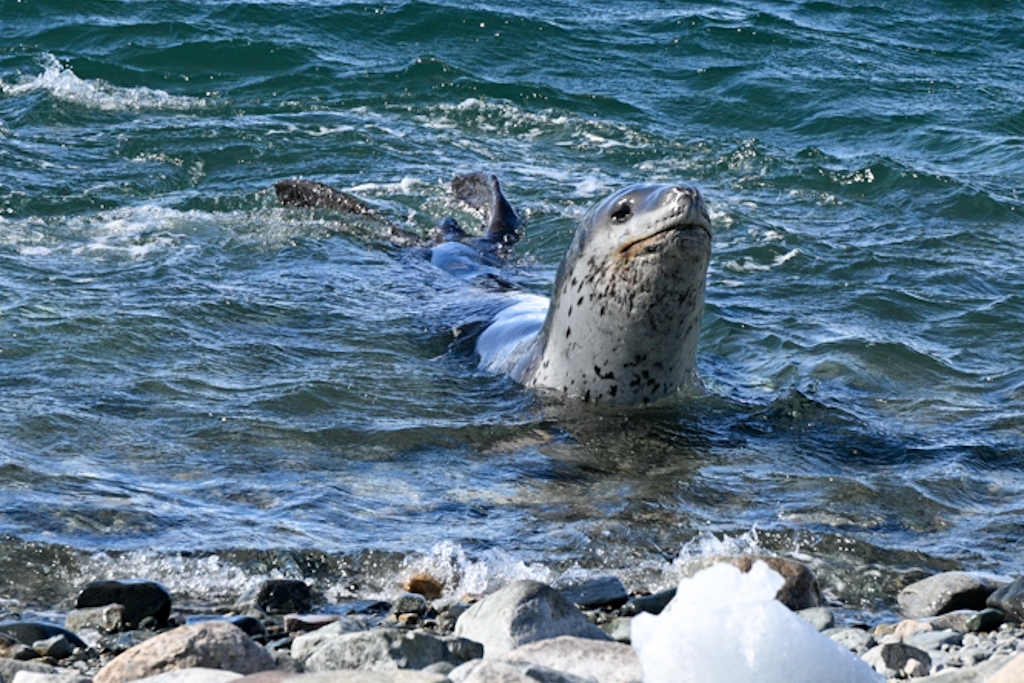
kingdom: Animalia
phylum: Chordata
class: Mammalia
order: Carnivora
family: Phocidae
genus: Hydrurga
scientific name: Hydrurga leptonyx
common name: Leopard seal
